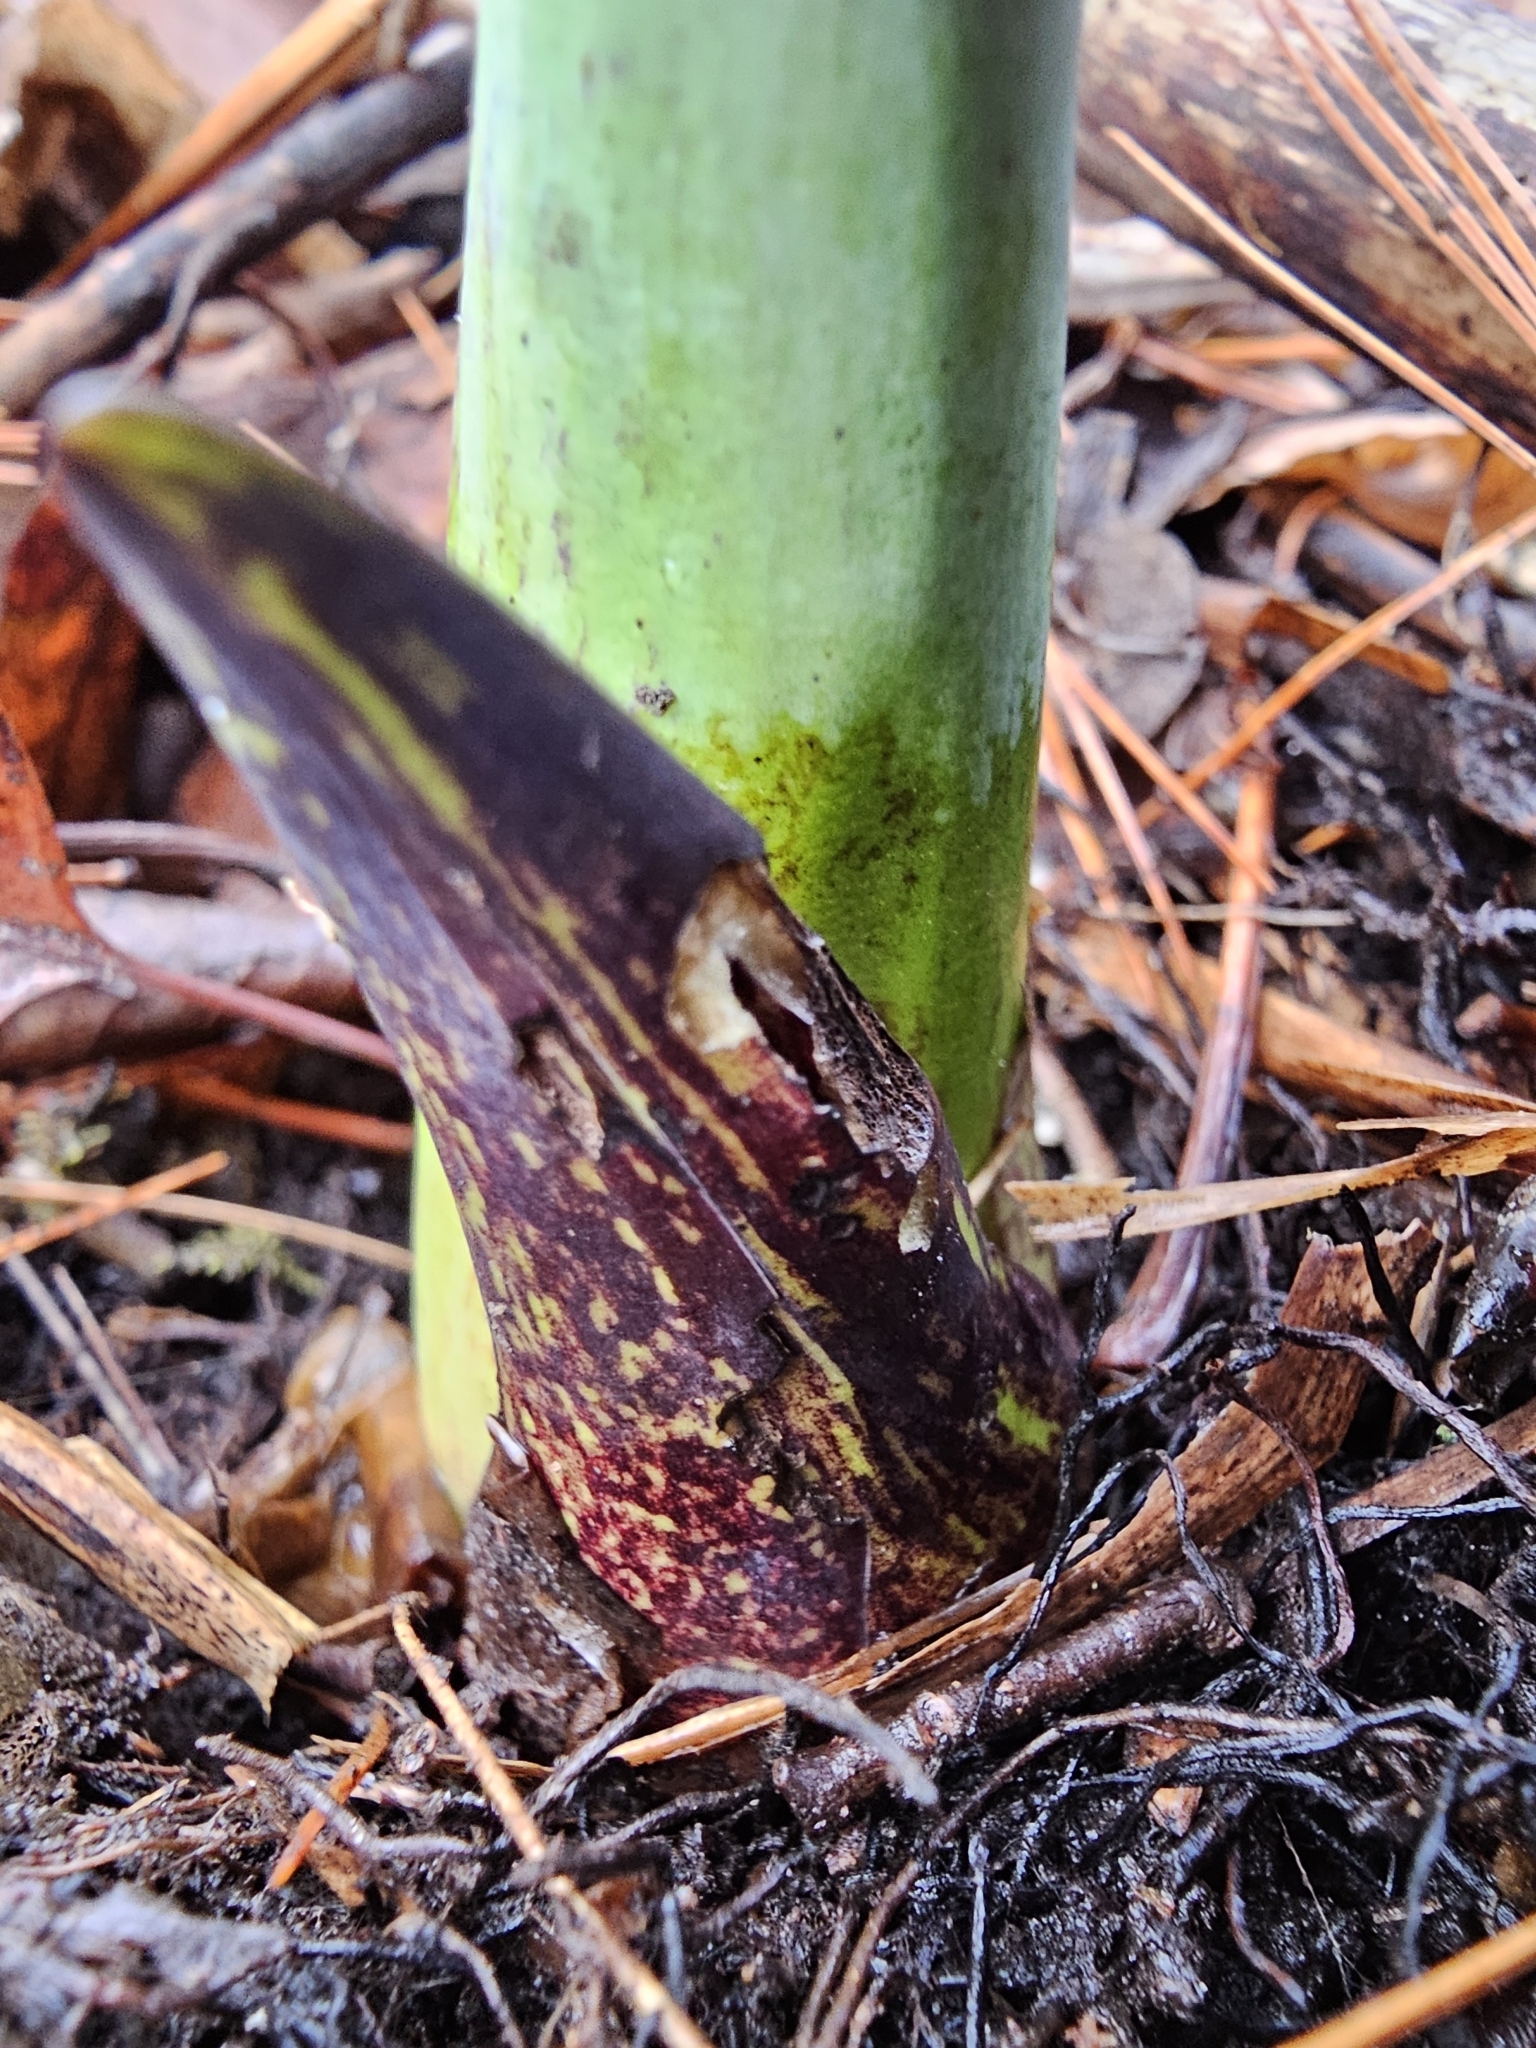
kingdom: Plantae
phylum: Tracheophyta
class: Liliopsida
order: Alismatales
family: Araceae
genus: Symplocarpus
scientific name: Symplocarpus foetidus
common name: Eastern skunk cabbage
